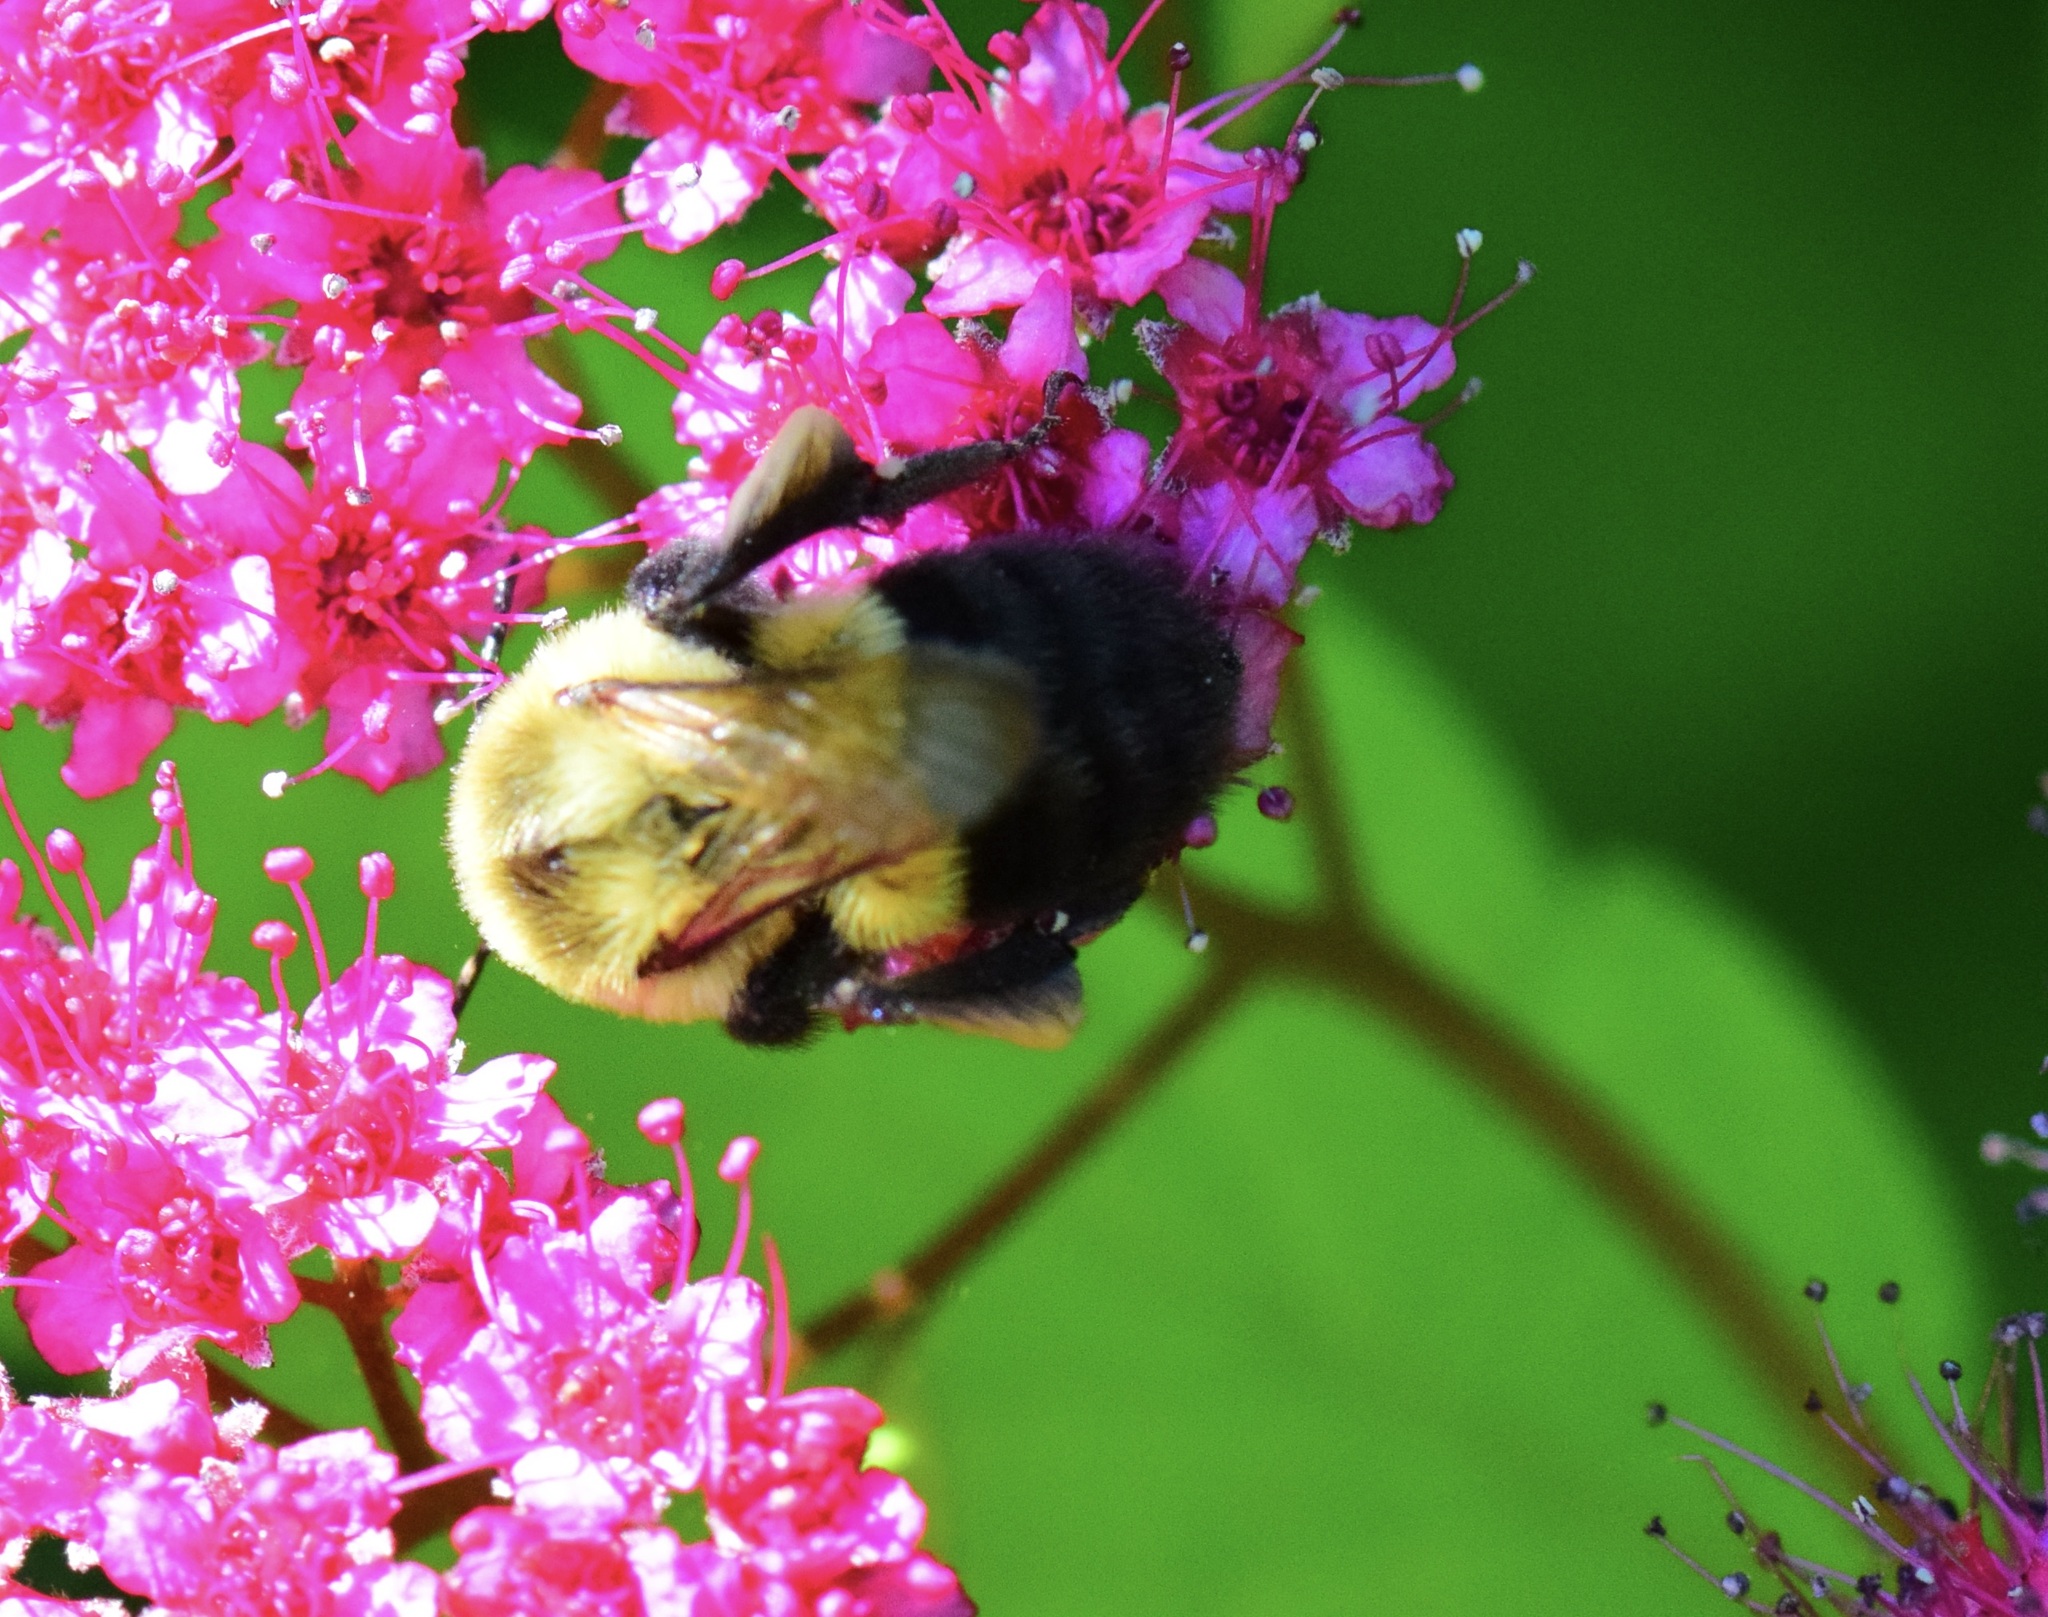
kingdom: Animalia
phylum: Arthropoda
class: Insecta
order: Hymenoptera
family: Apidae
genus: Bombus
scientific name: Bombus impatiens
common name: Common eastern bumble bee
